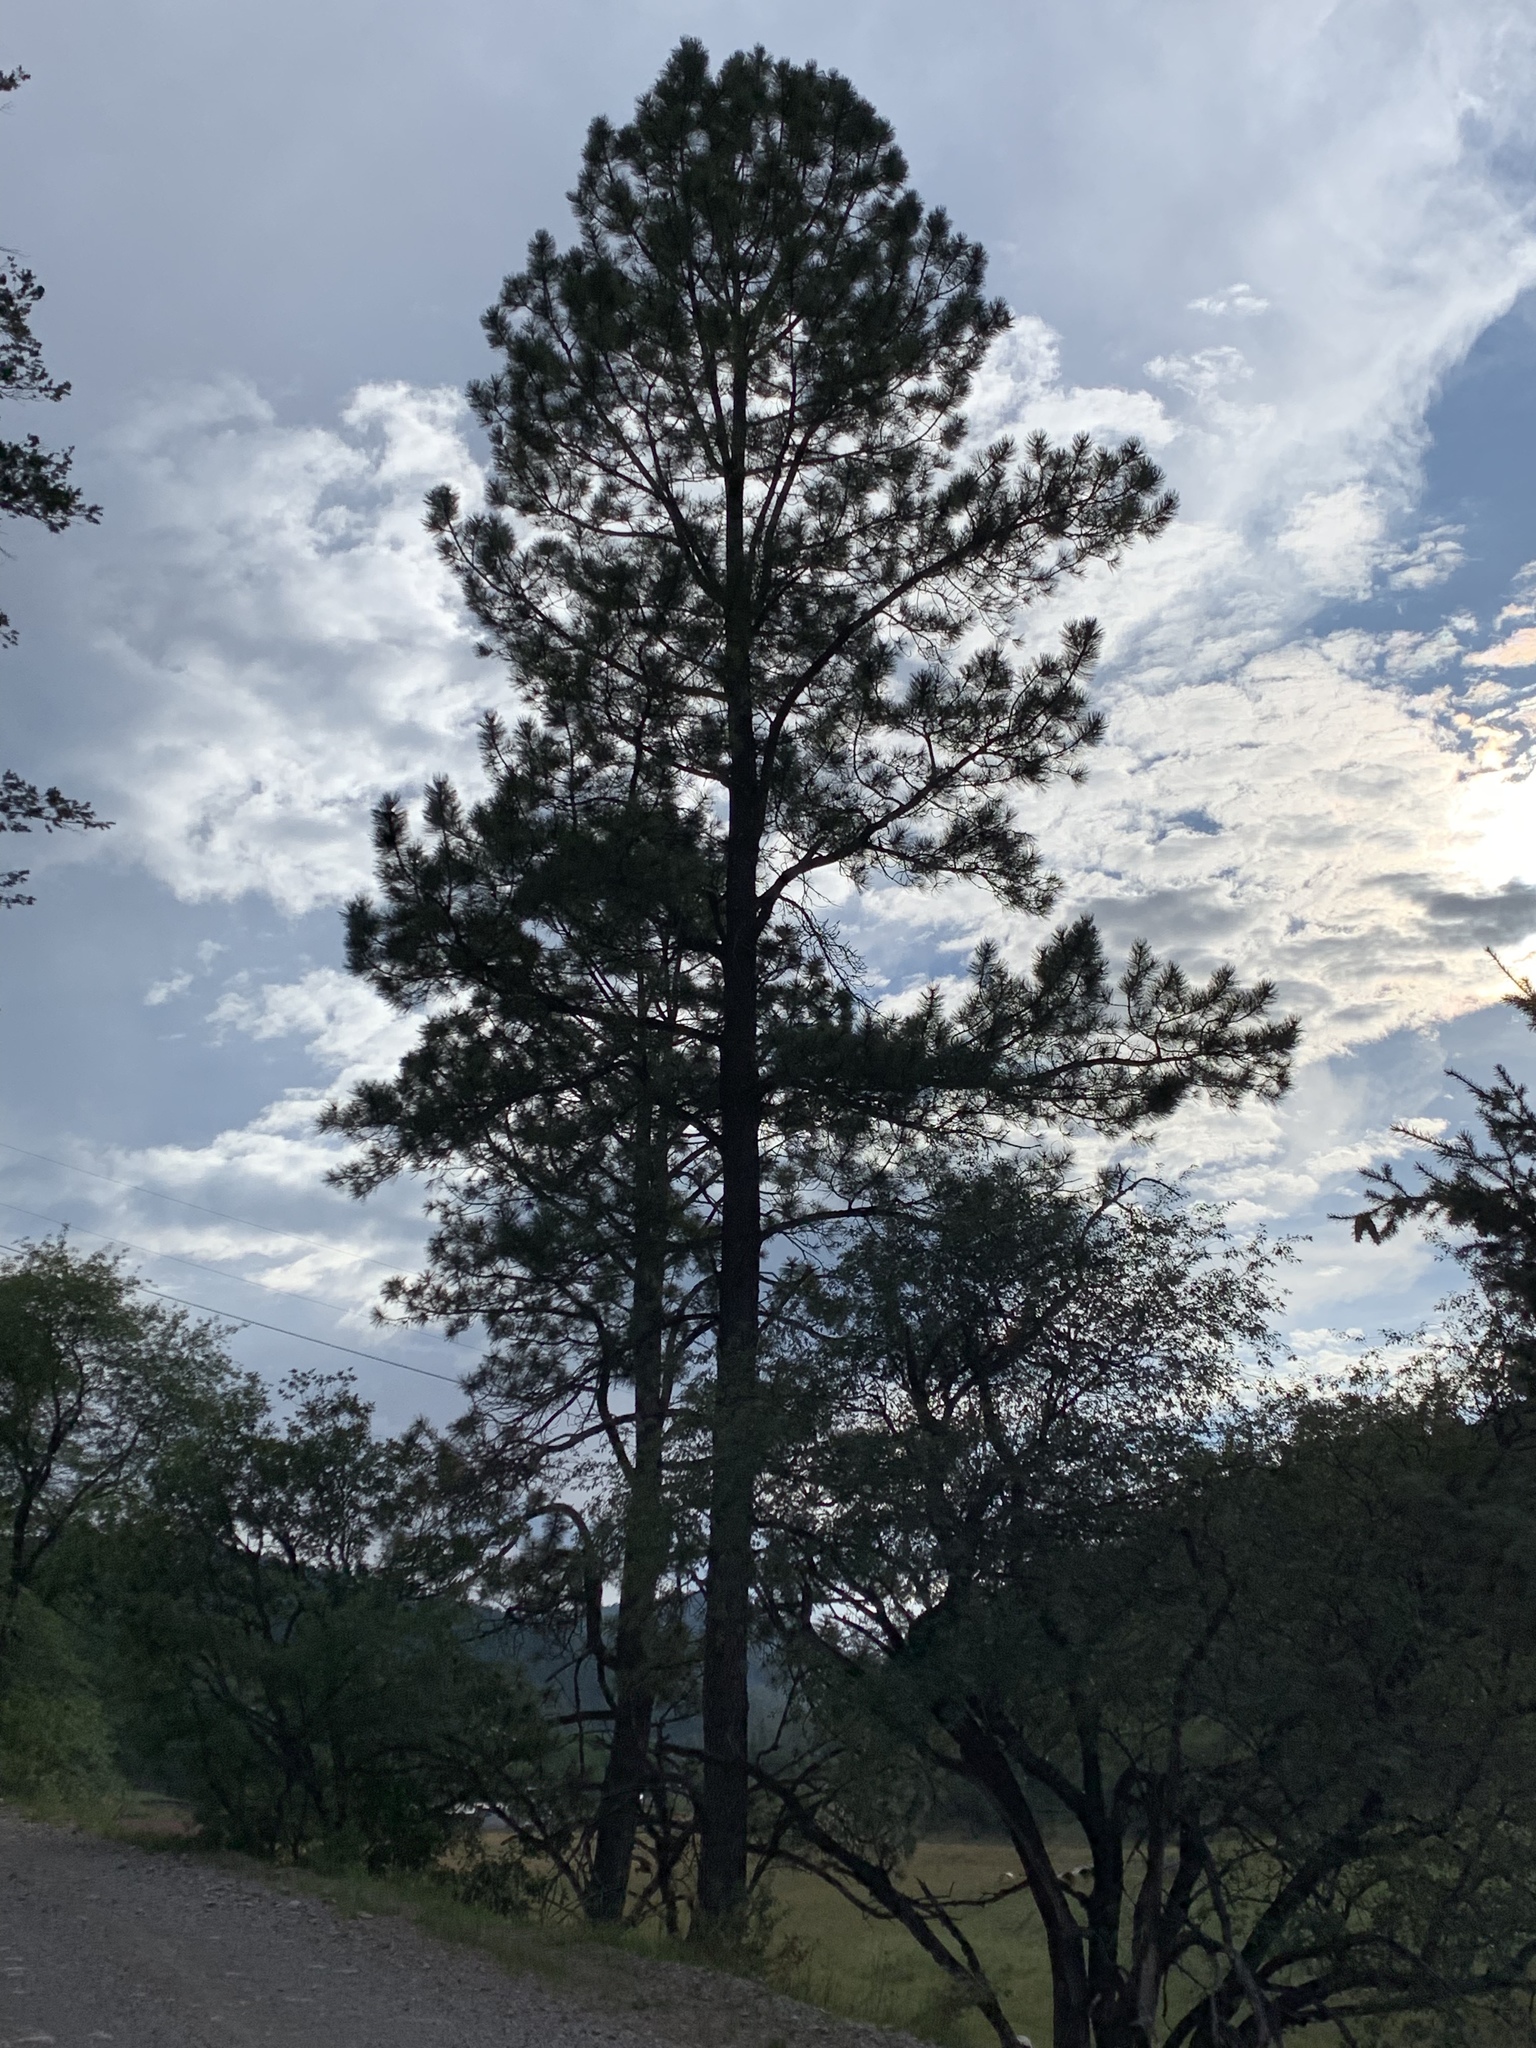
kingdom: Plantae
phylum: Tracheophyta
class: Pinopsida
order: Pinales
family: Pinaceae
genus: Pinus
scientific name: Pinus ponderosa
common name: Western yellow-pine
